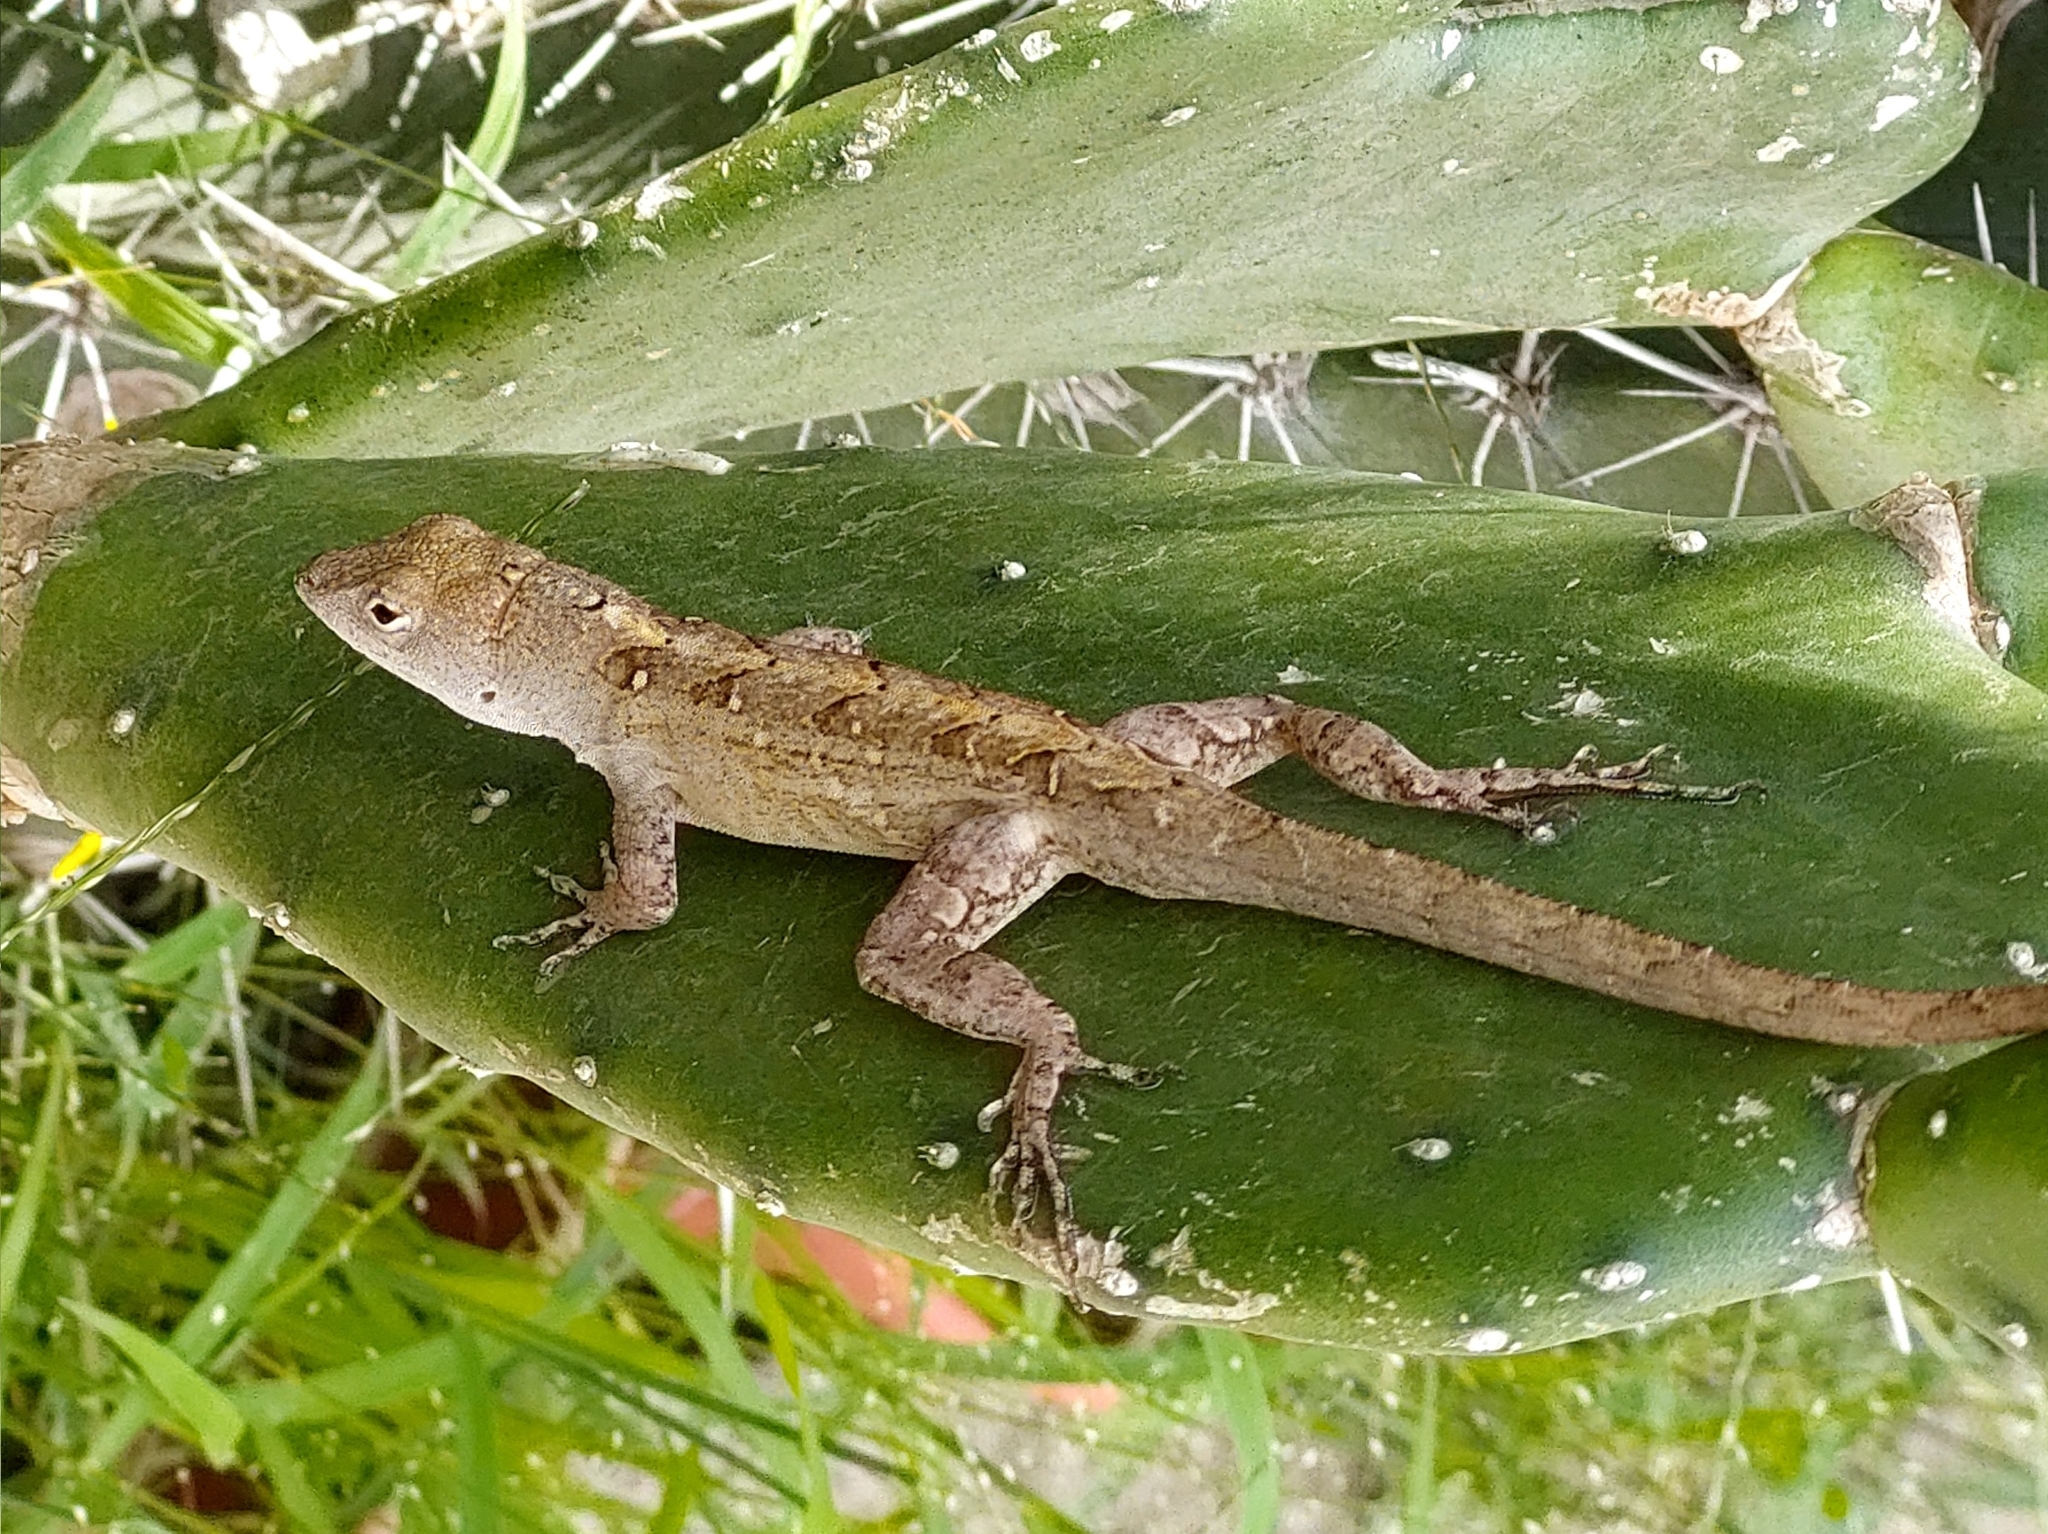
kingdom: Animalia
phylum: Chordata
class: Squamata
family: Dactyloidae
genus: Anolis
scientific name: Anolis sagrei
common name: Brown anole
